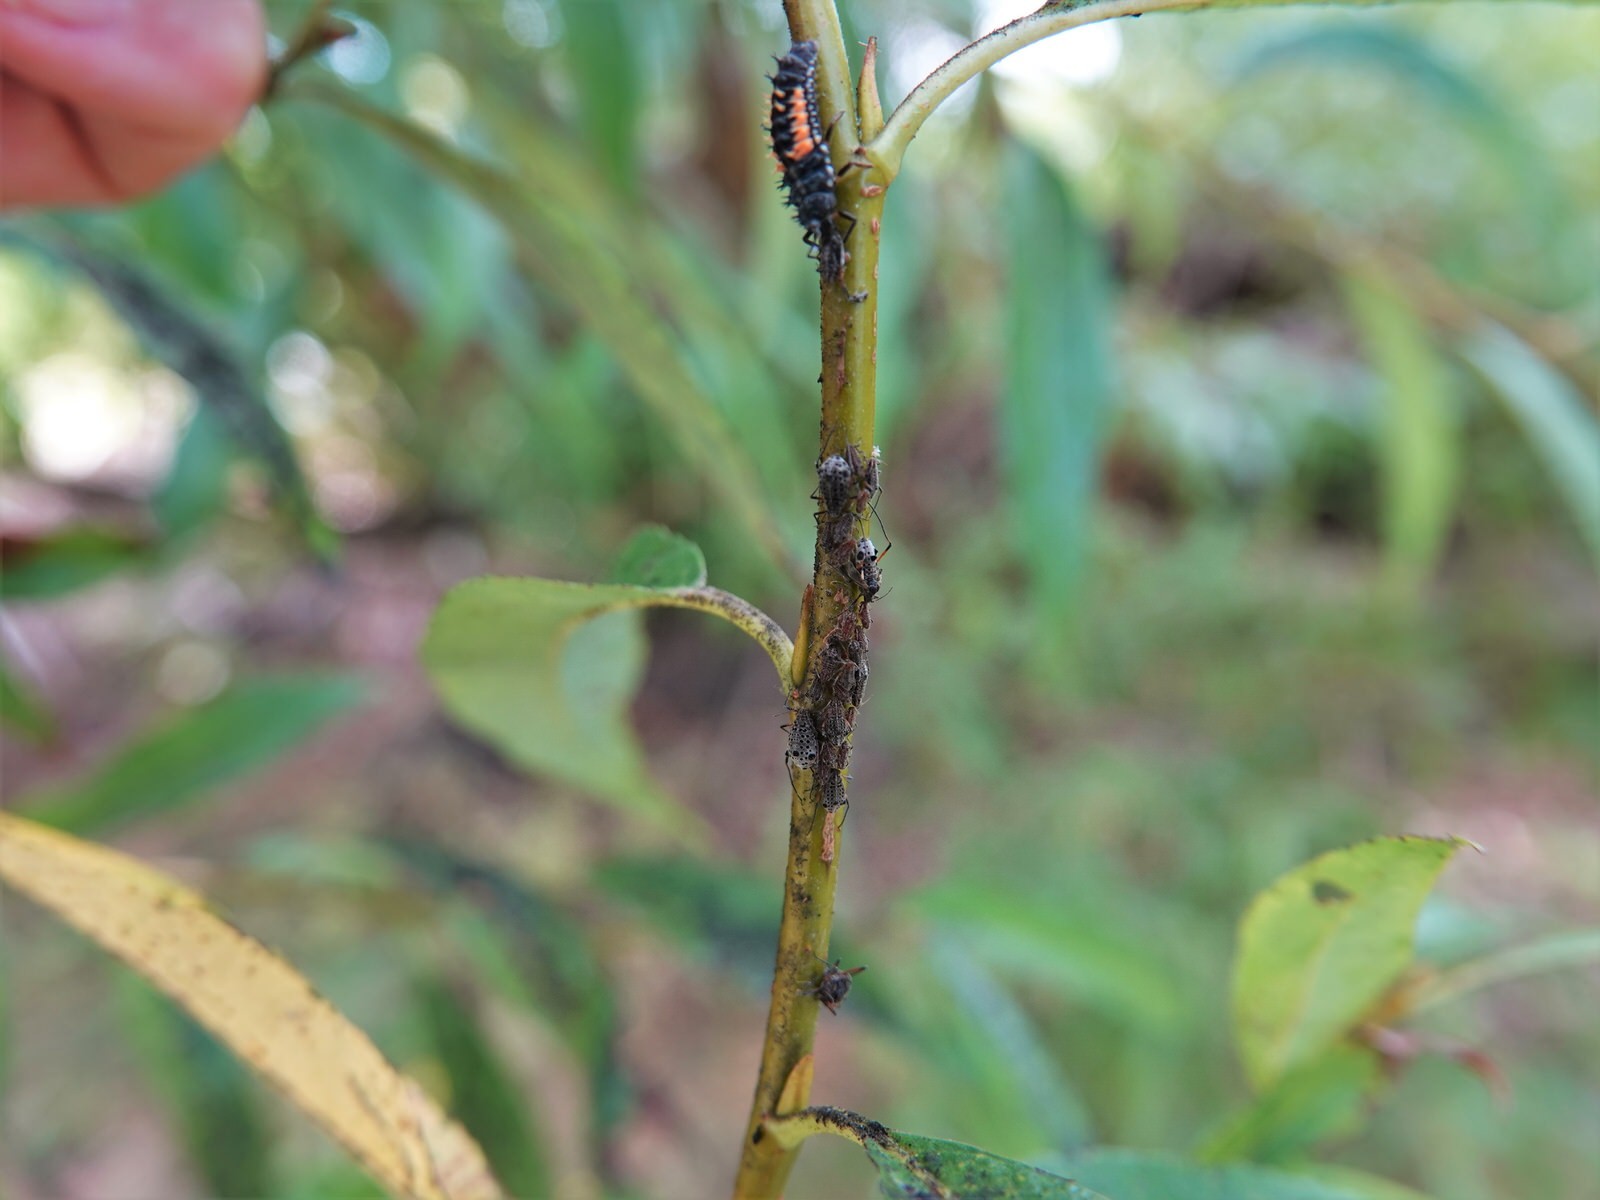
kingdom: Animalia
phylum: Arthropoda
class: Insecta
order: Hemiptera
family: Aphididae
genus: Tuberolachnus
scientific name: Tuberolachnus salignus
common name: Giant willow aphid
